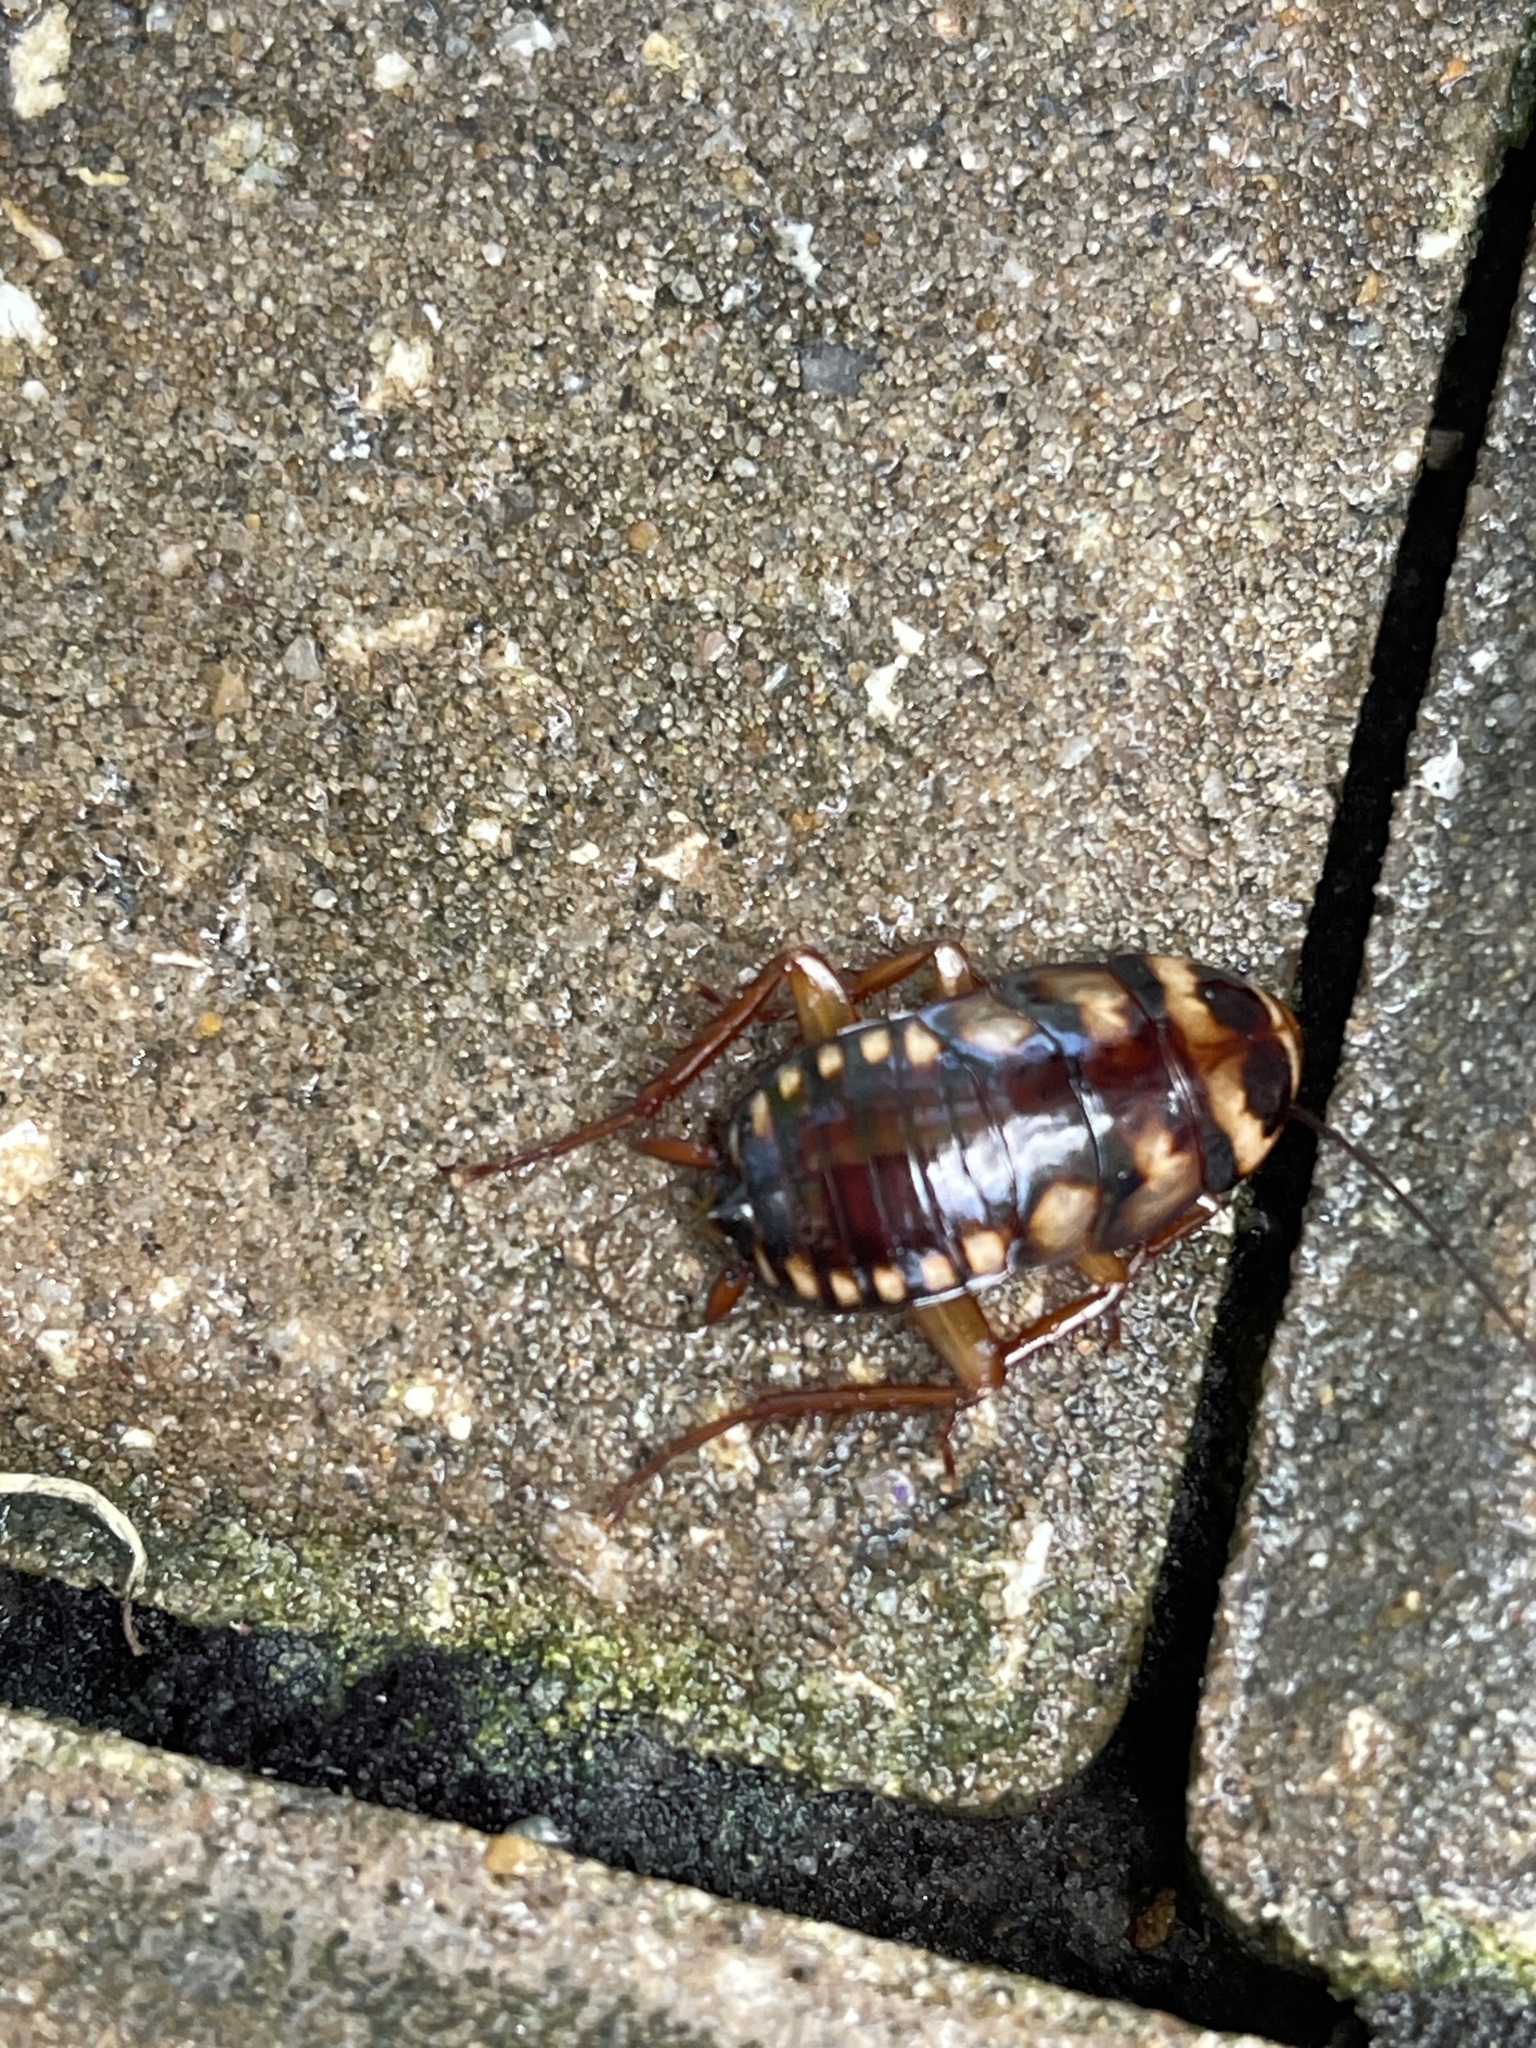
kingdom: Animalia
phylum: Arthropoda
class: Insecta
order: Blattodea
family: Blattidae
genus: Periplaneta
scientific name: Periplaneta australasiae
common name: Australian cockroach
